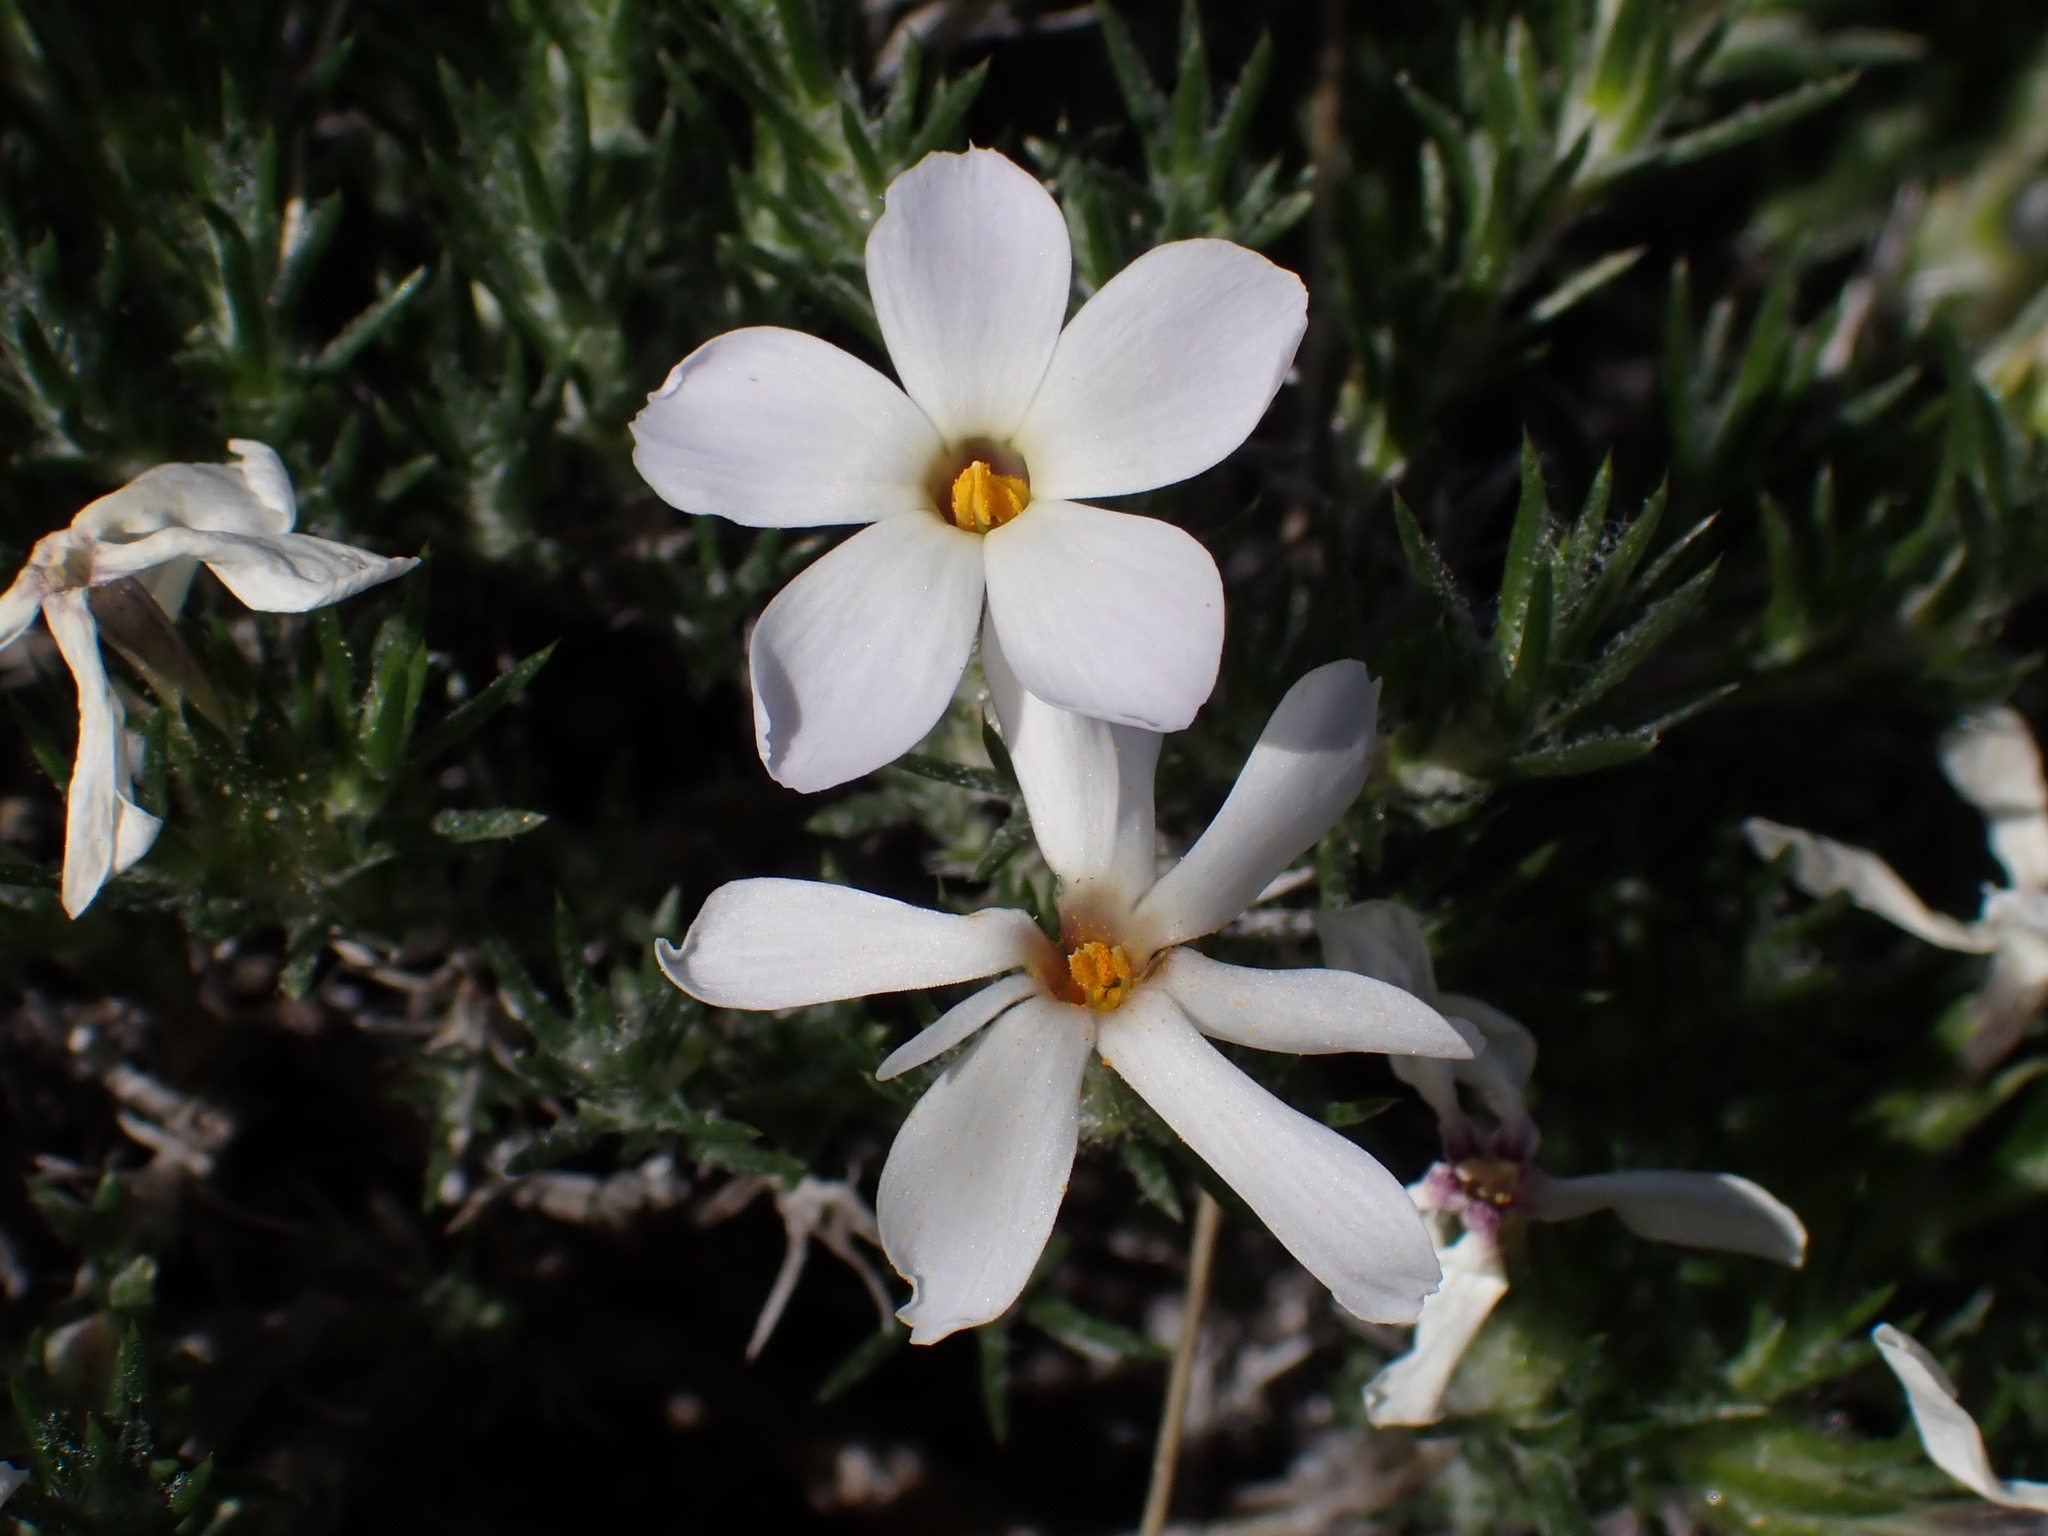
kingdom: Plantae
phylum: Tracheophyta
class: Magnoliopsida
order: Ericales
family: Polemoniaceae
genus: Phlox
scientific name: Phlox hoodii
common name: Moss phlox
